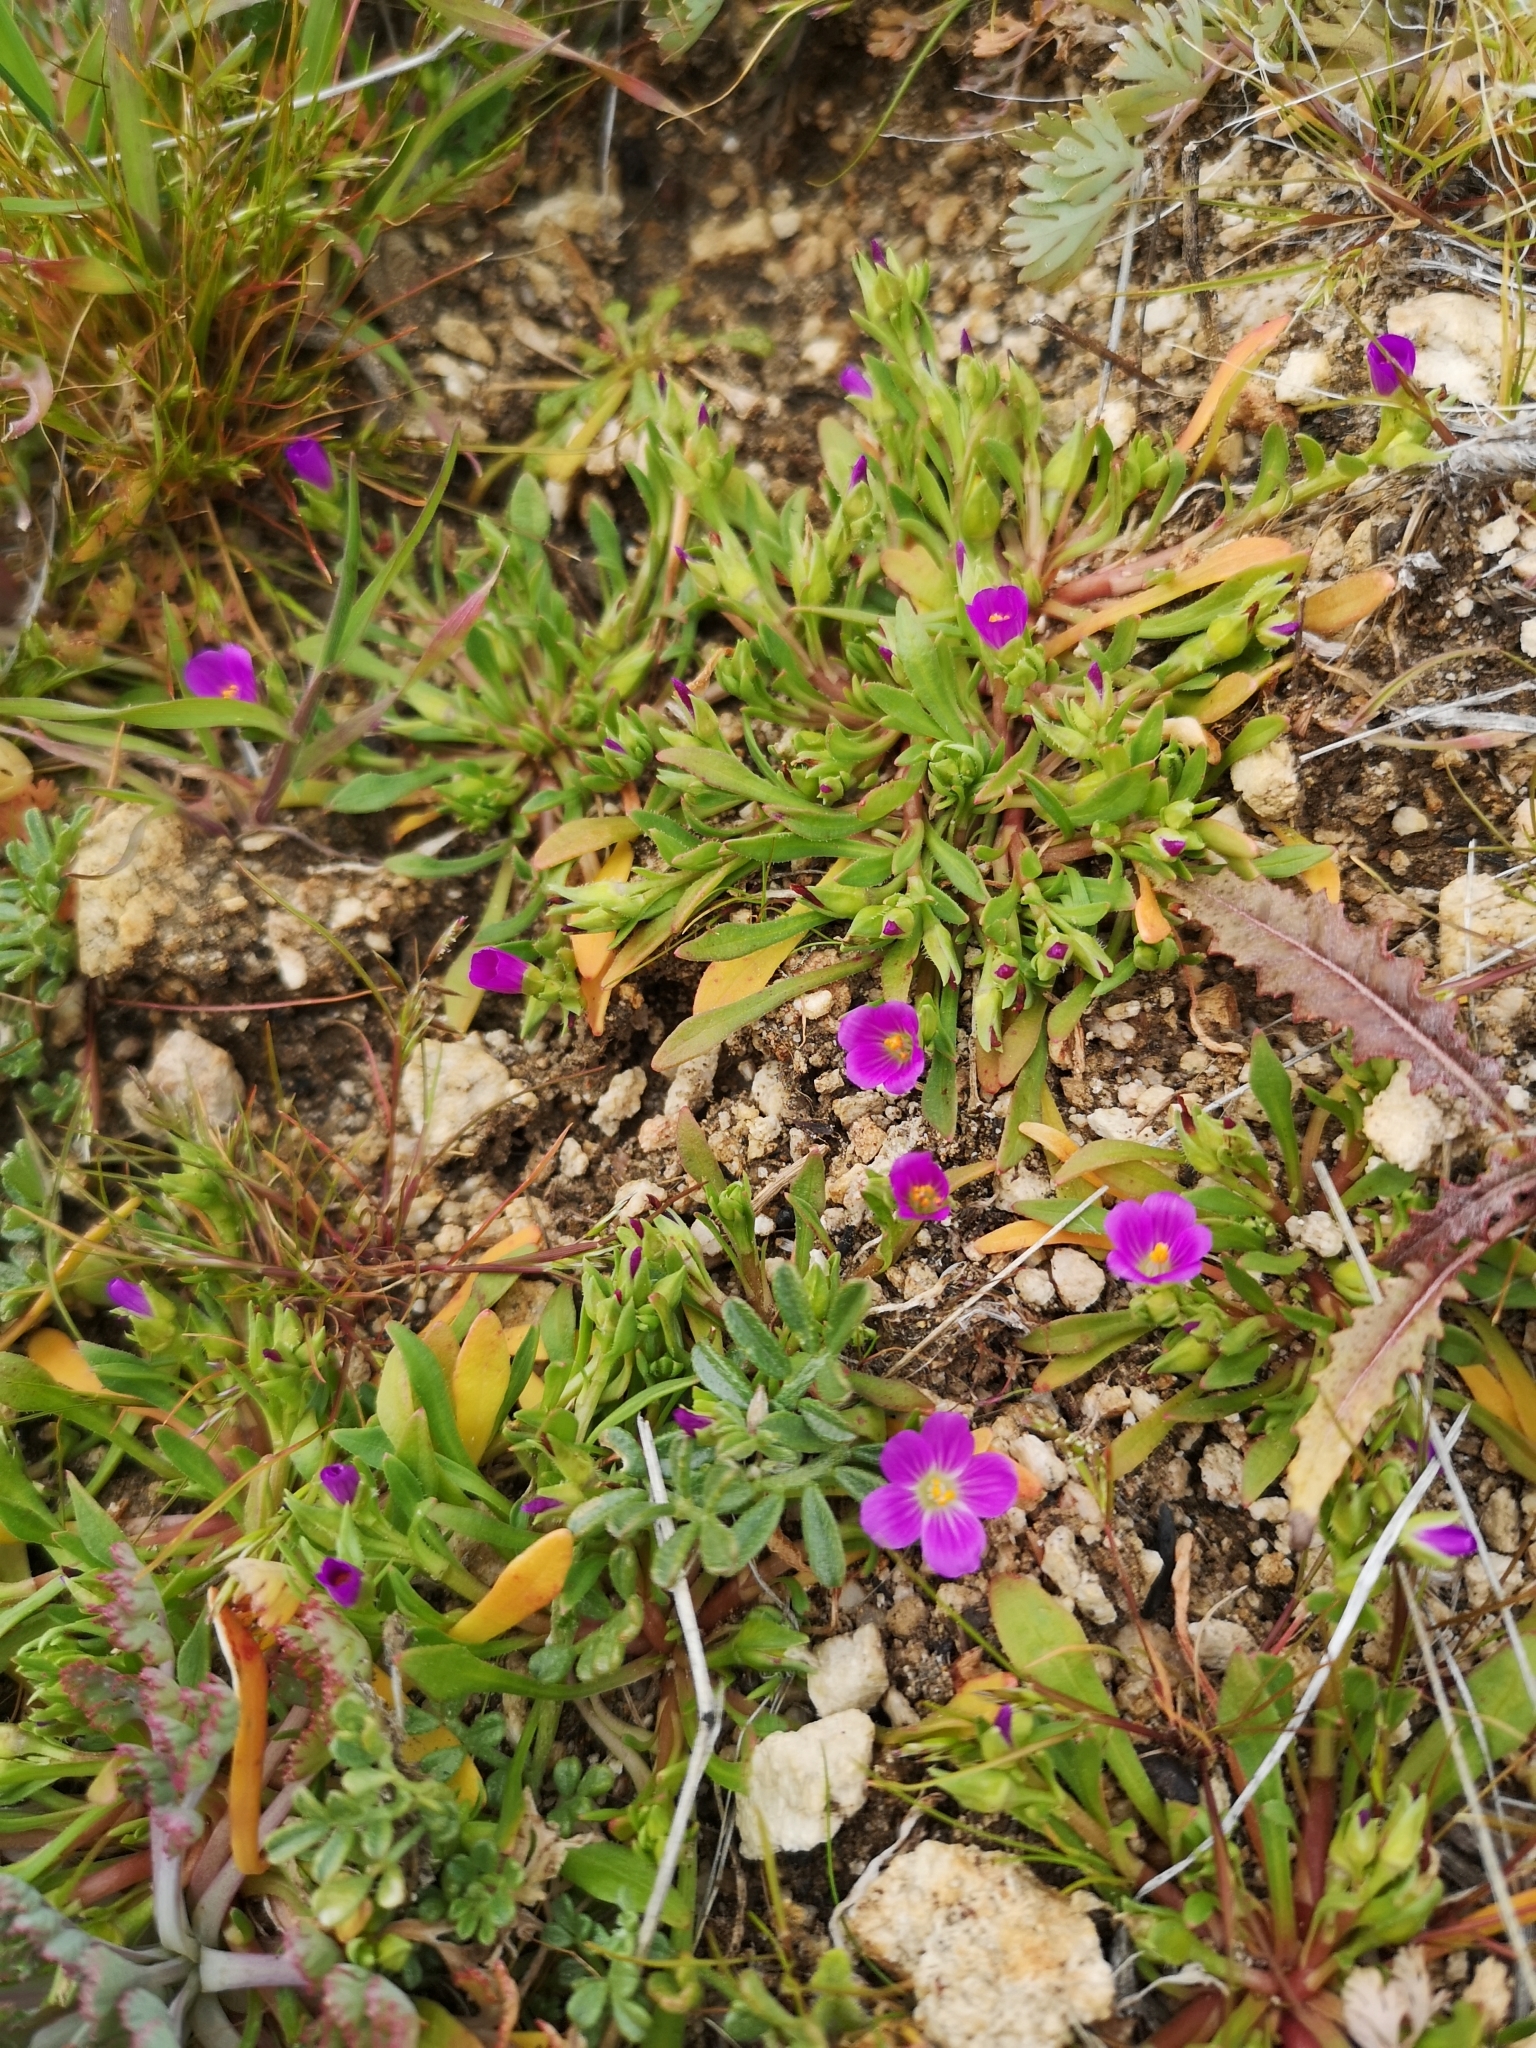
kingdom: Plantae
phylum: Tracheophyta
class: Magnoliopsida
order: Caryophyllales
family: Montiaceae
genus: Calandrinia
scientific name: Calandrinia menziesii
